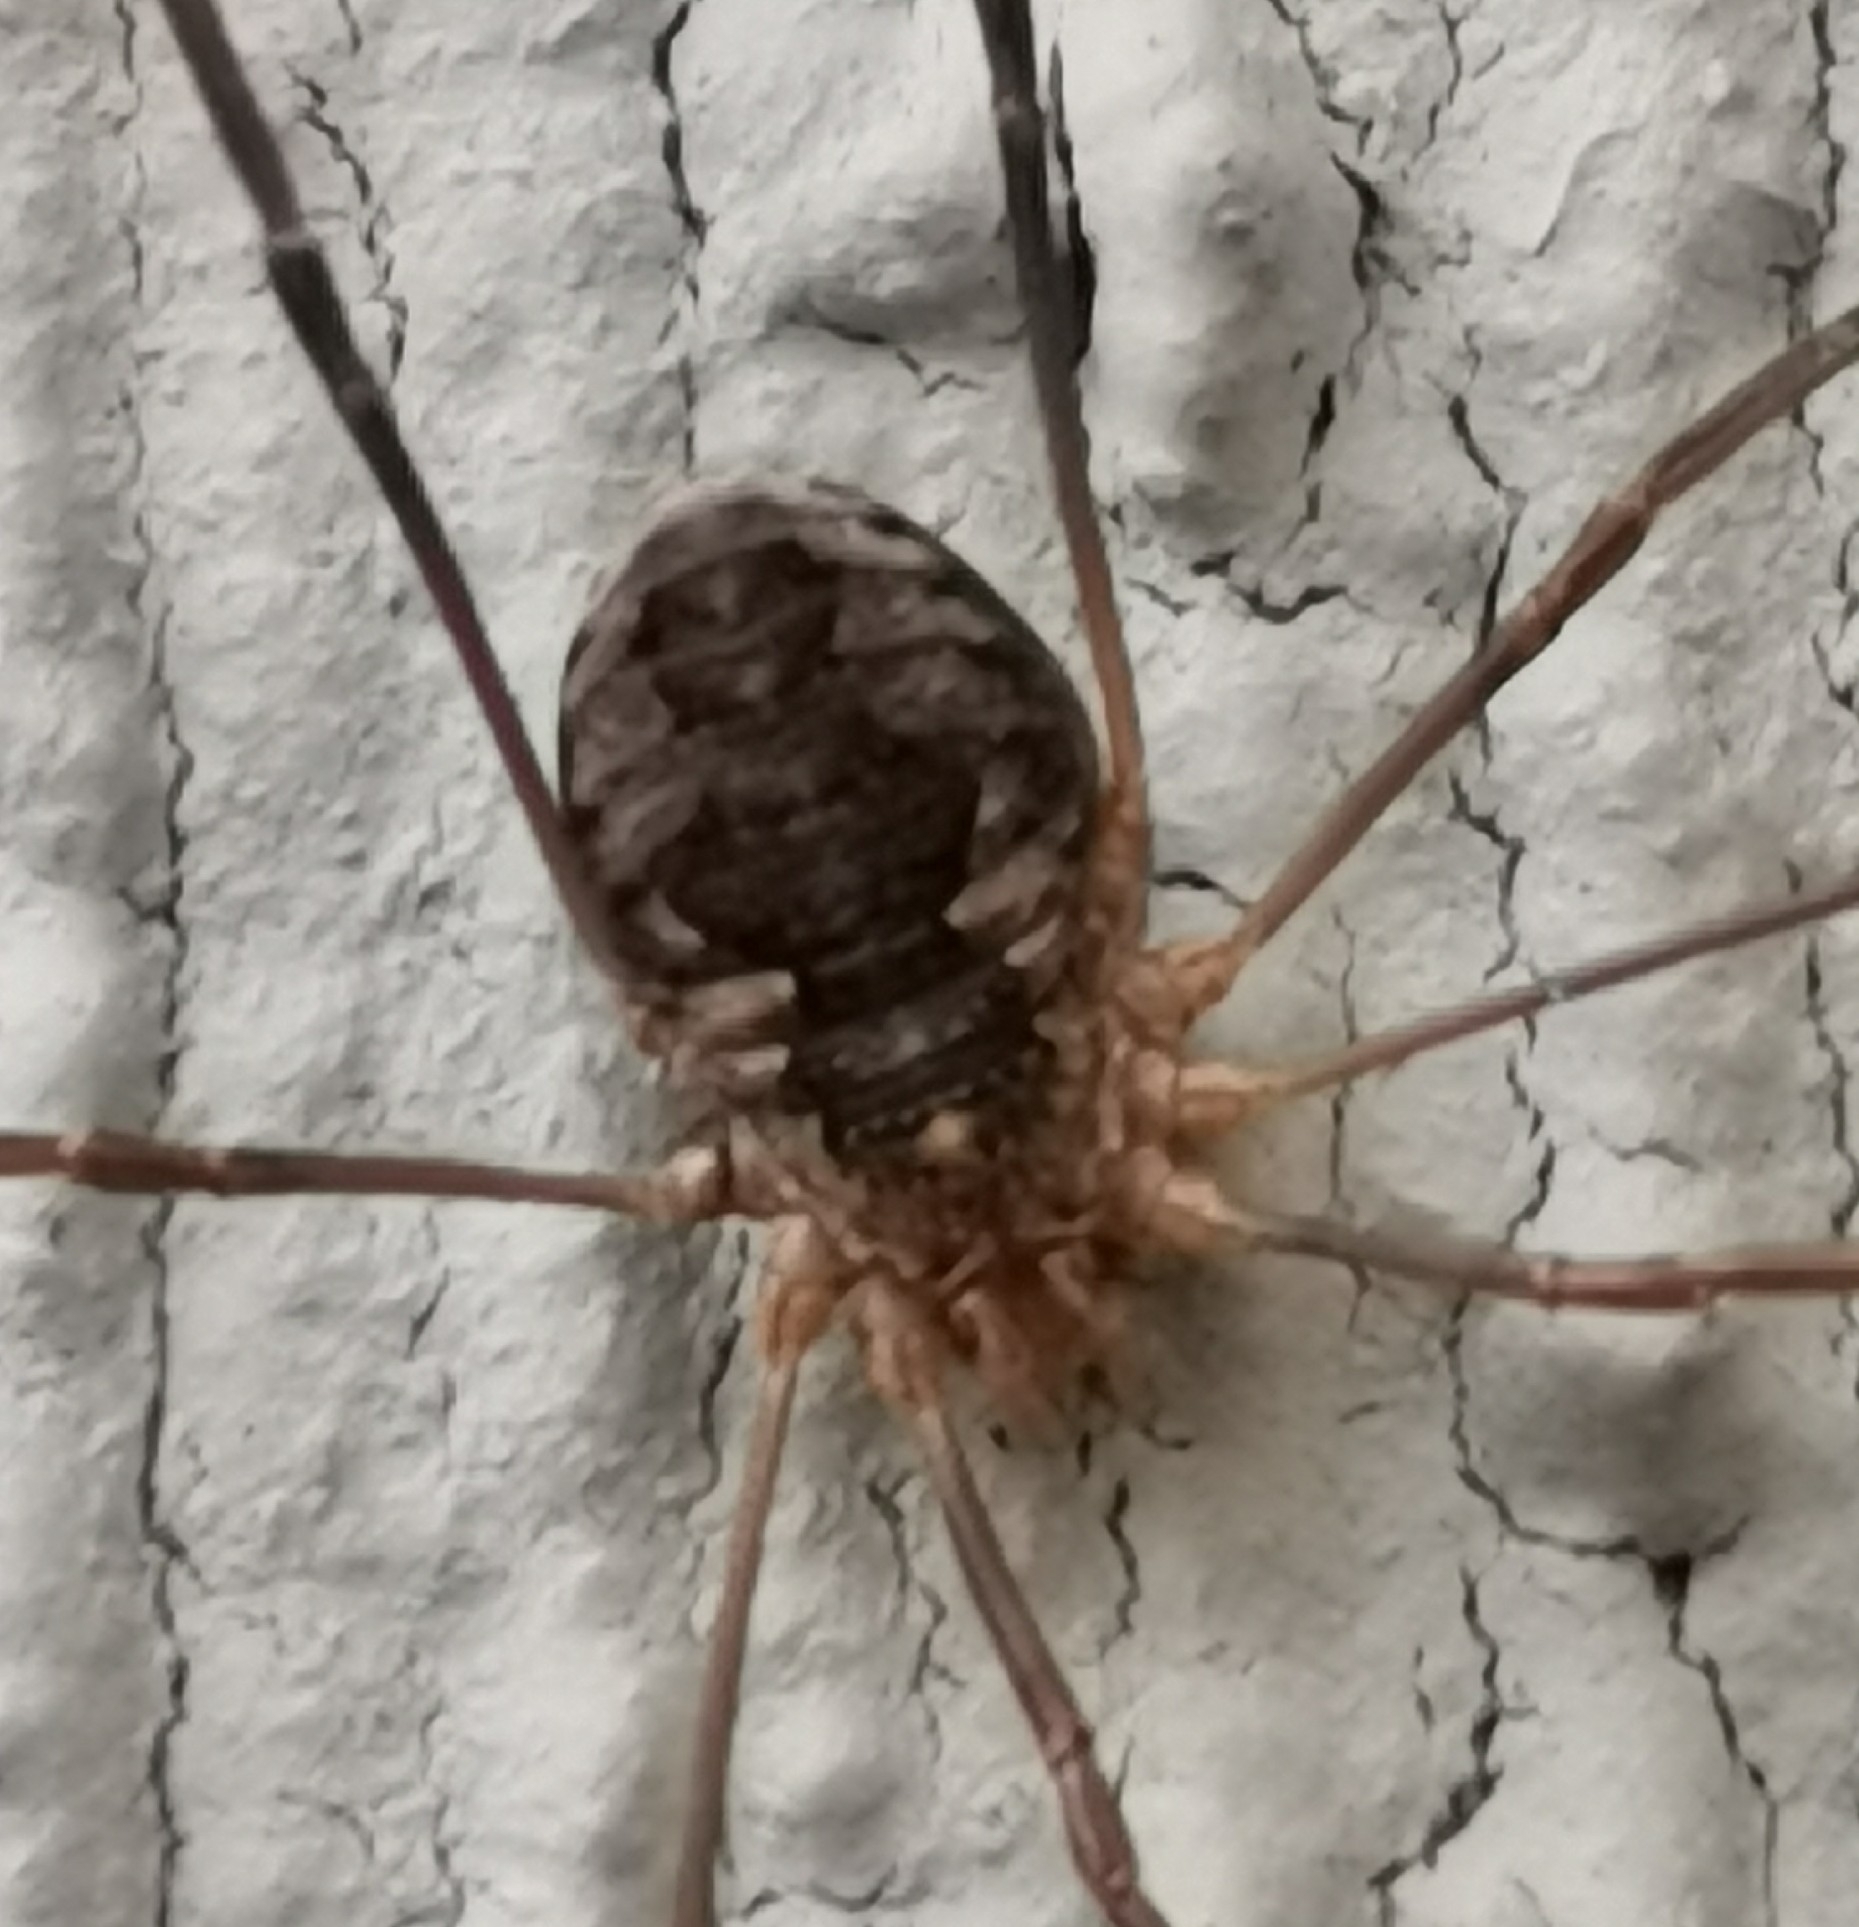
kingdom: Animalia
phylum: Arthropoda
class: Arachnida
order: Opiliones
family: Phalangiidae
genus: Phalangium
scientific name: Phalangium opilio
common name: Daddy longleg
